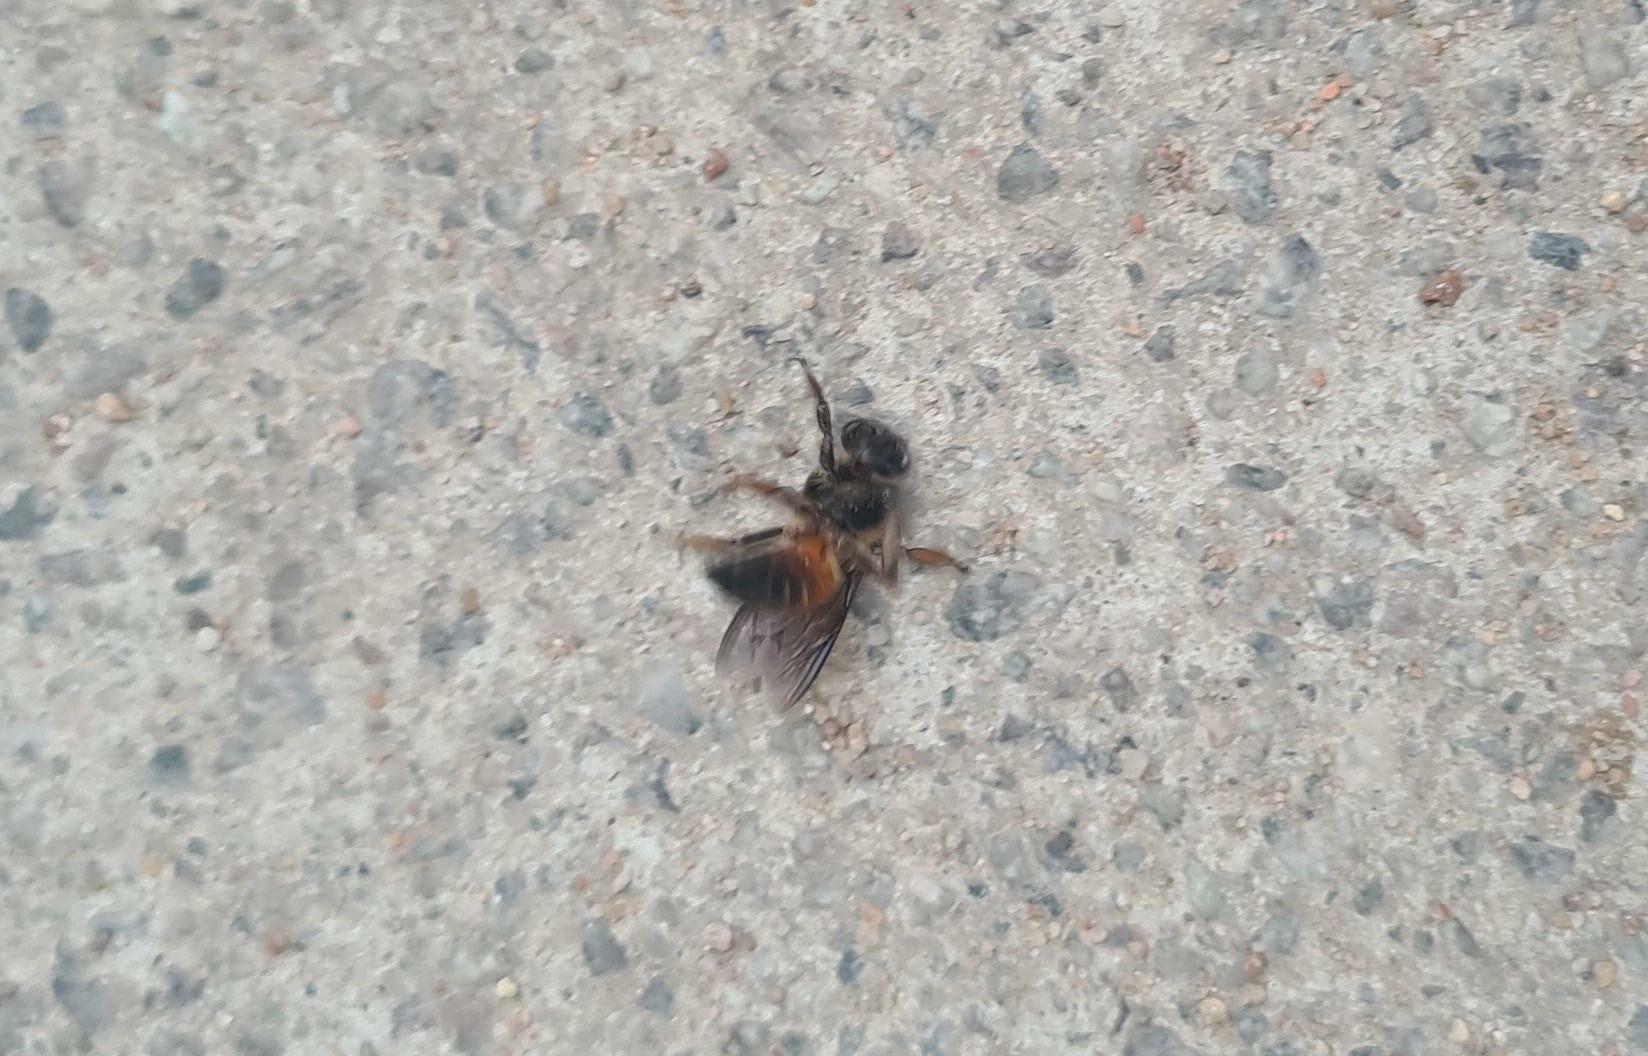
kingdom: Animalia
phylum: Arthropoda
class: Insecta
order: Hymenoptera
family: Apidae
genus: Apis
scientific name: Apis dorsata
